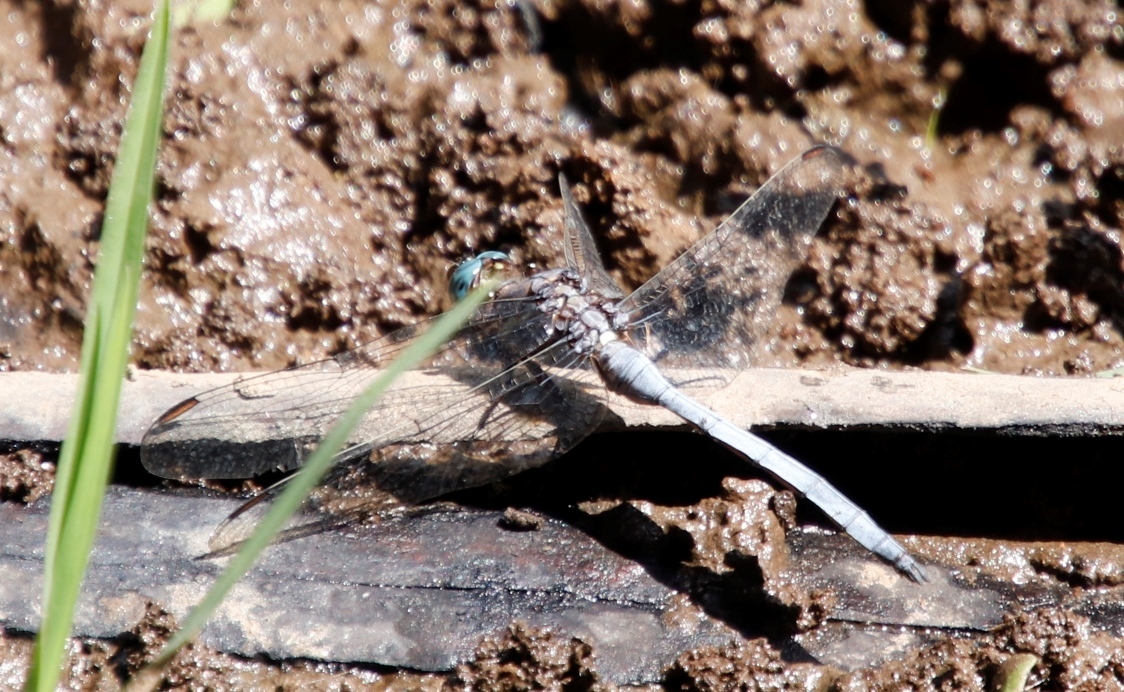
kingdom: Animalia
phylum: Arthropoda
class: Insecta
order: Odonata
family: Libellulidae
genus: Orthetrum
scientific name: Orthetrum julia
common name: Julia skimmer
